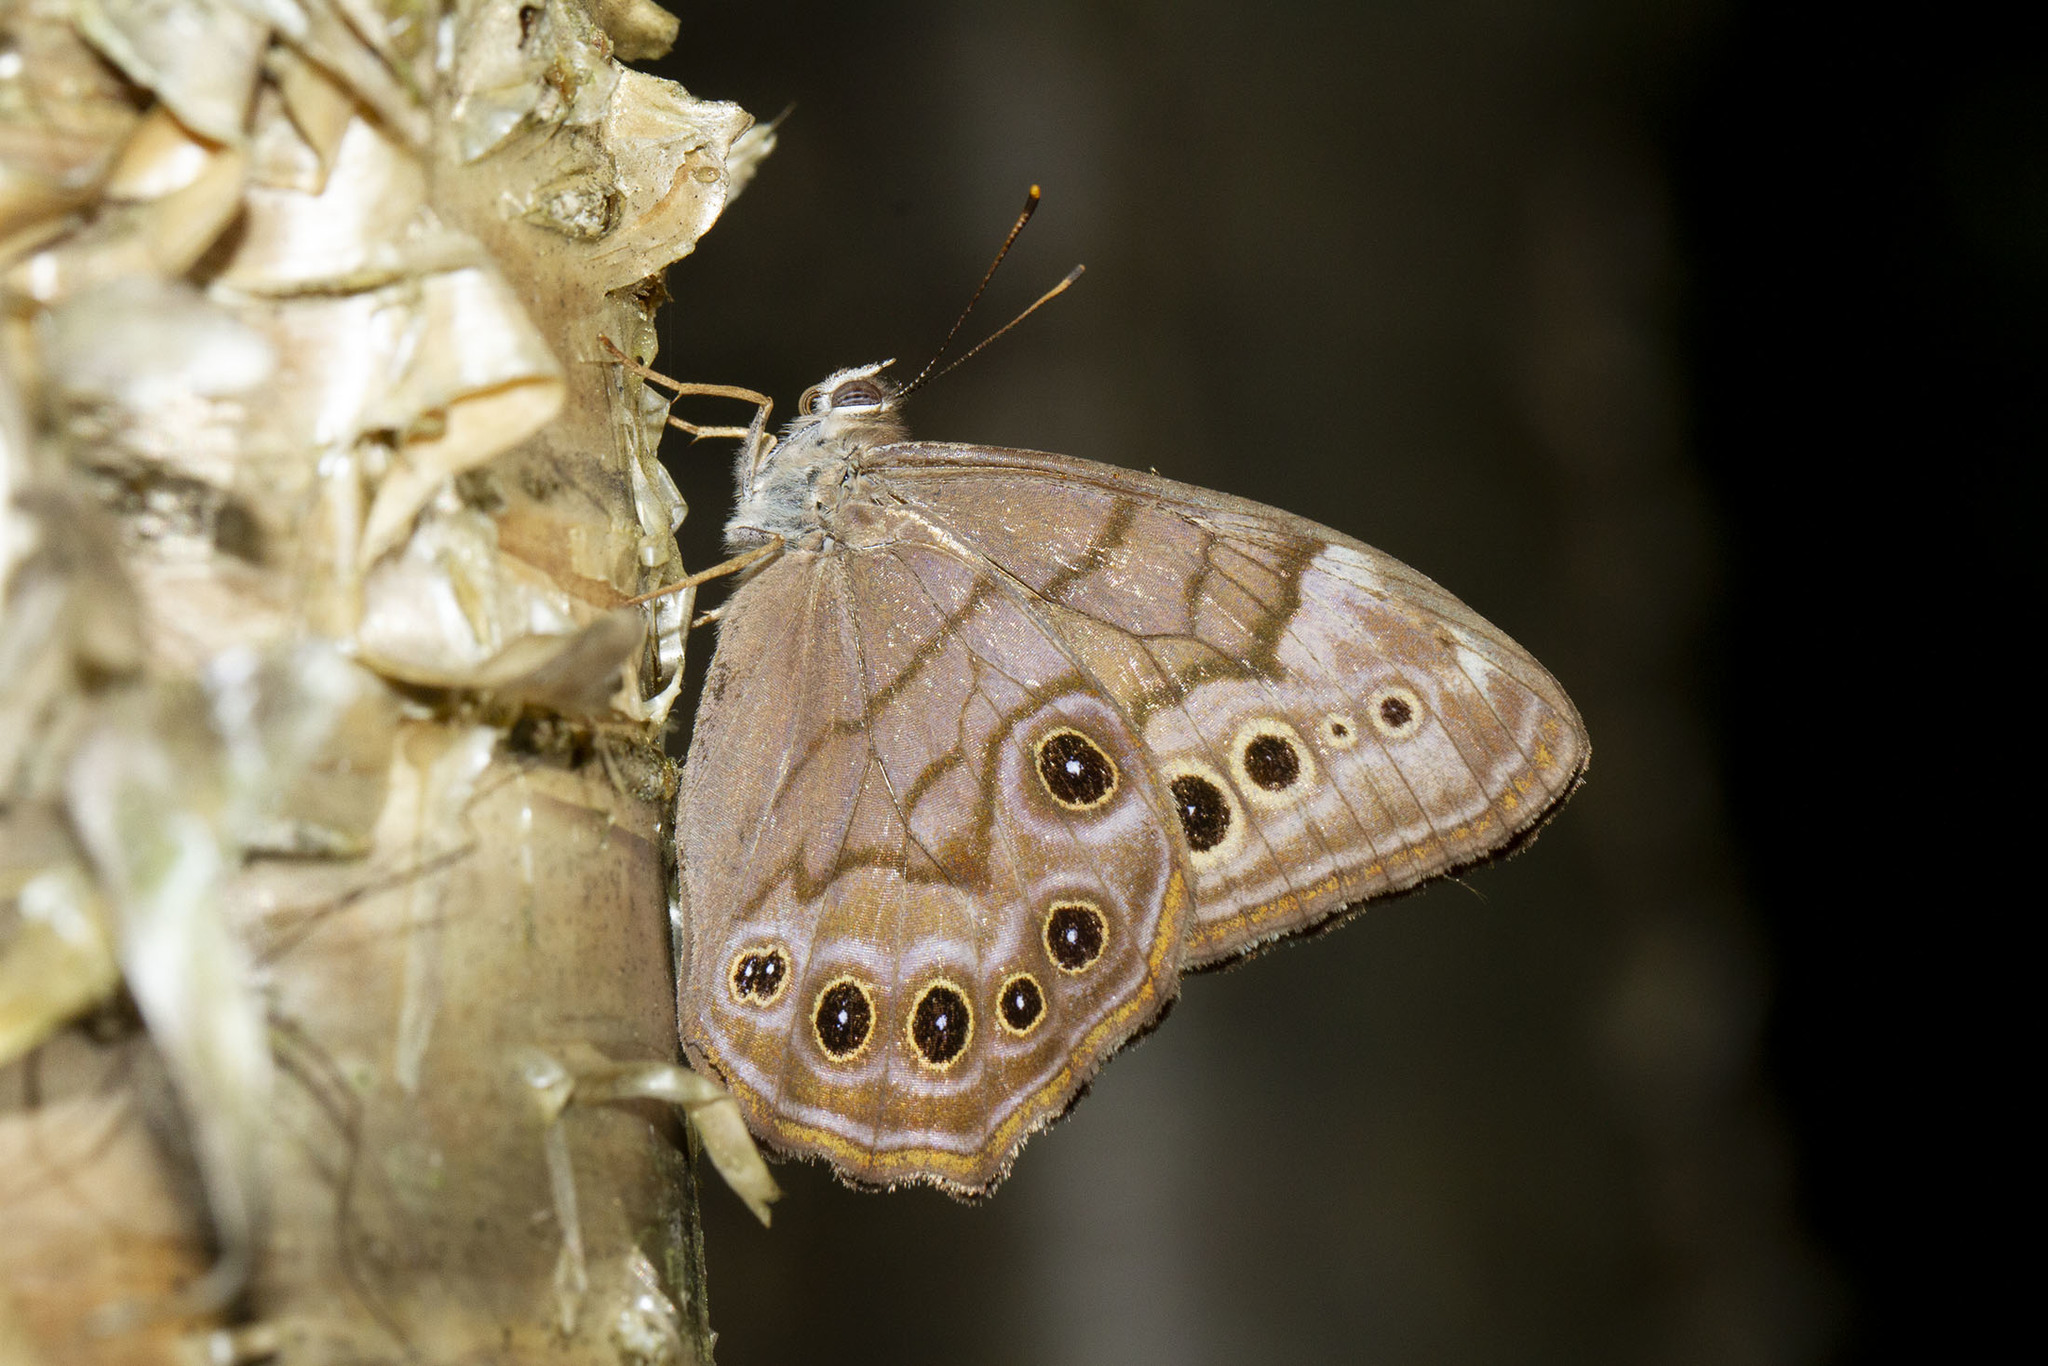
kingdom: Animalia
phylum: Arthropoda
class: Insecta
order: Lepidoptera
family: Nymphalidae
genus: Lethe
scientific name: Lethe anthedon
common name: Northern pearly-eye
